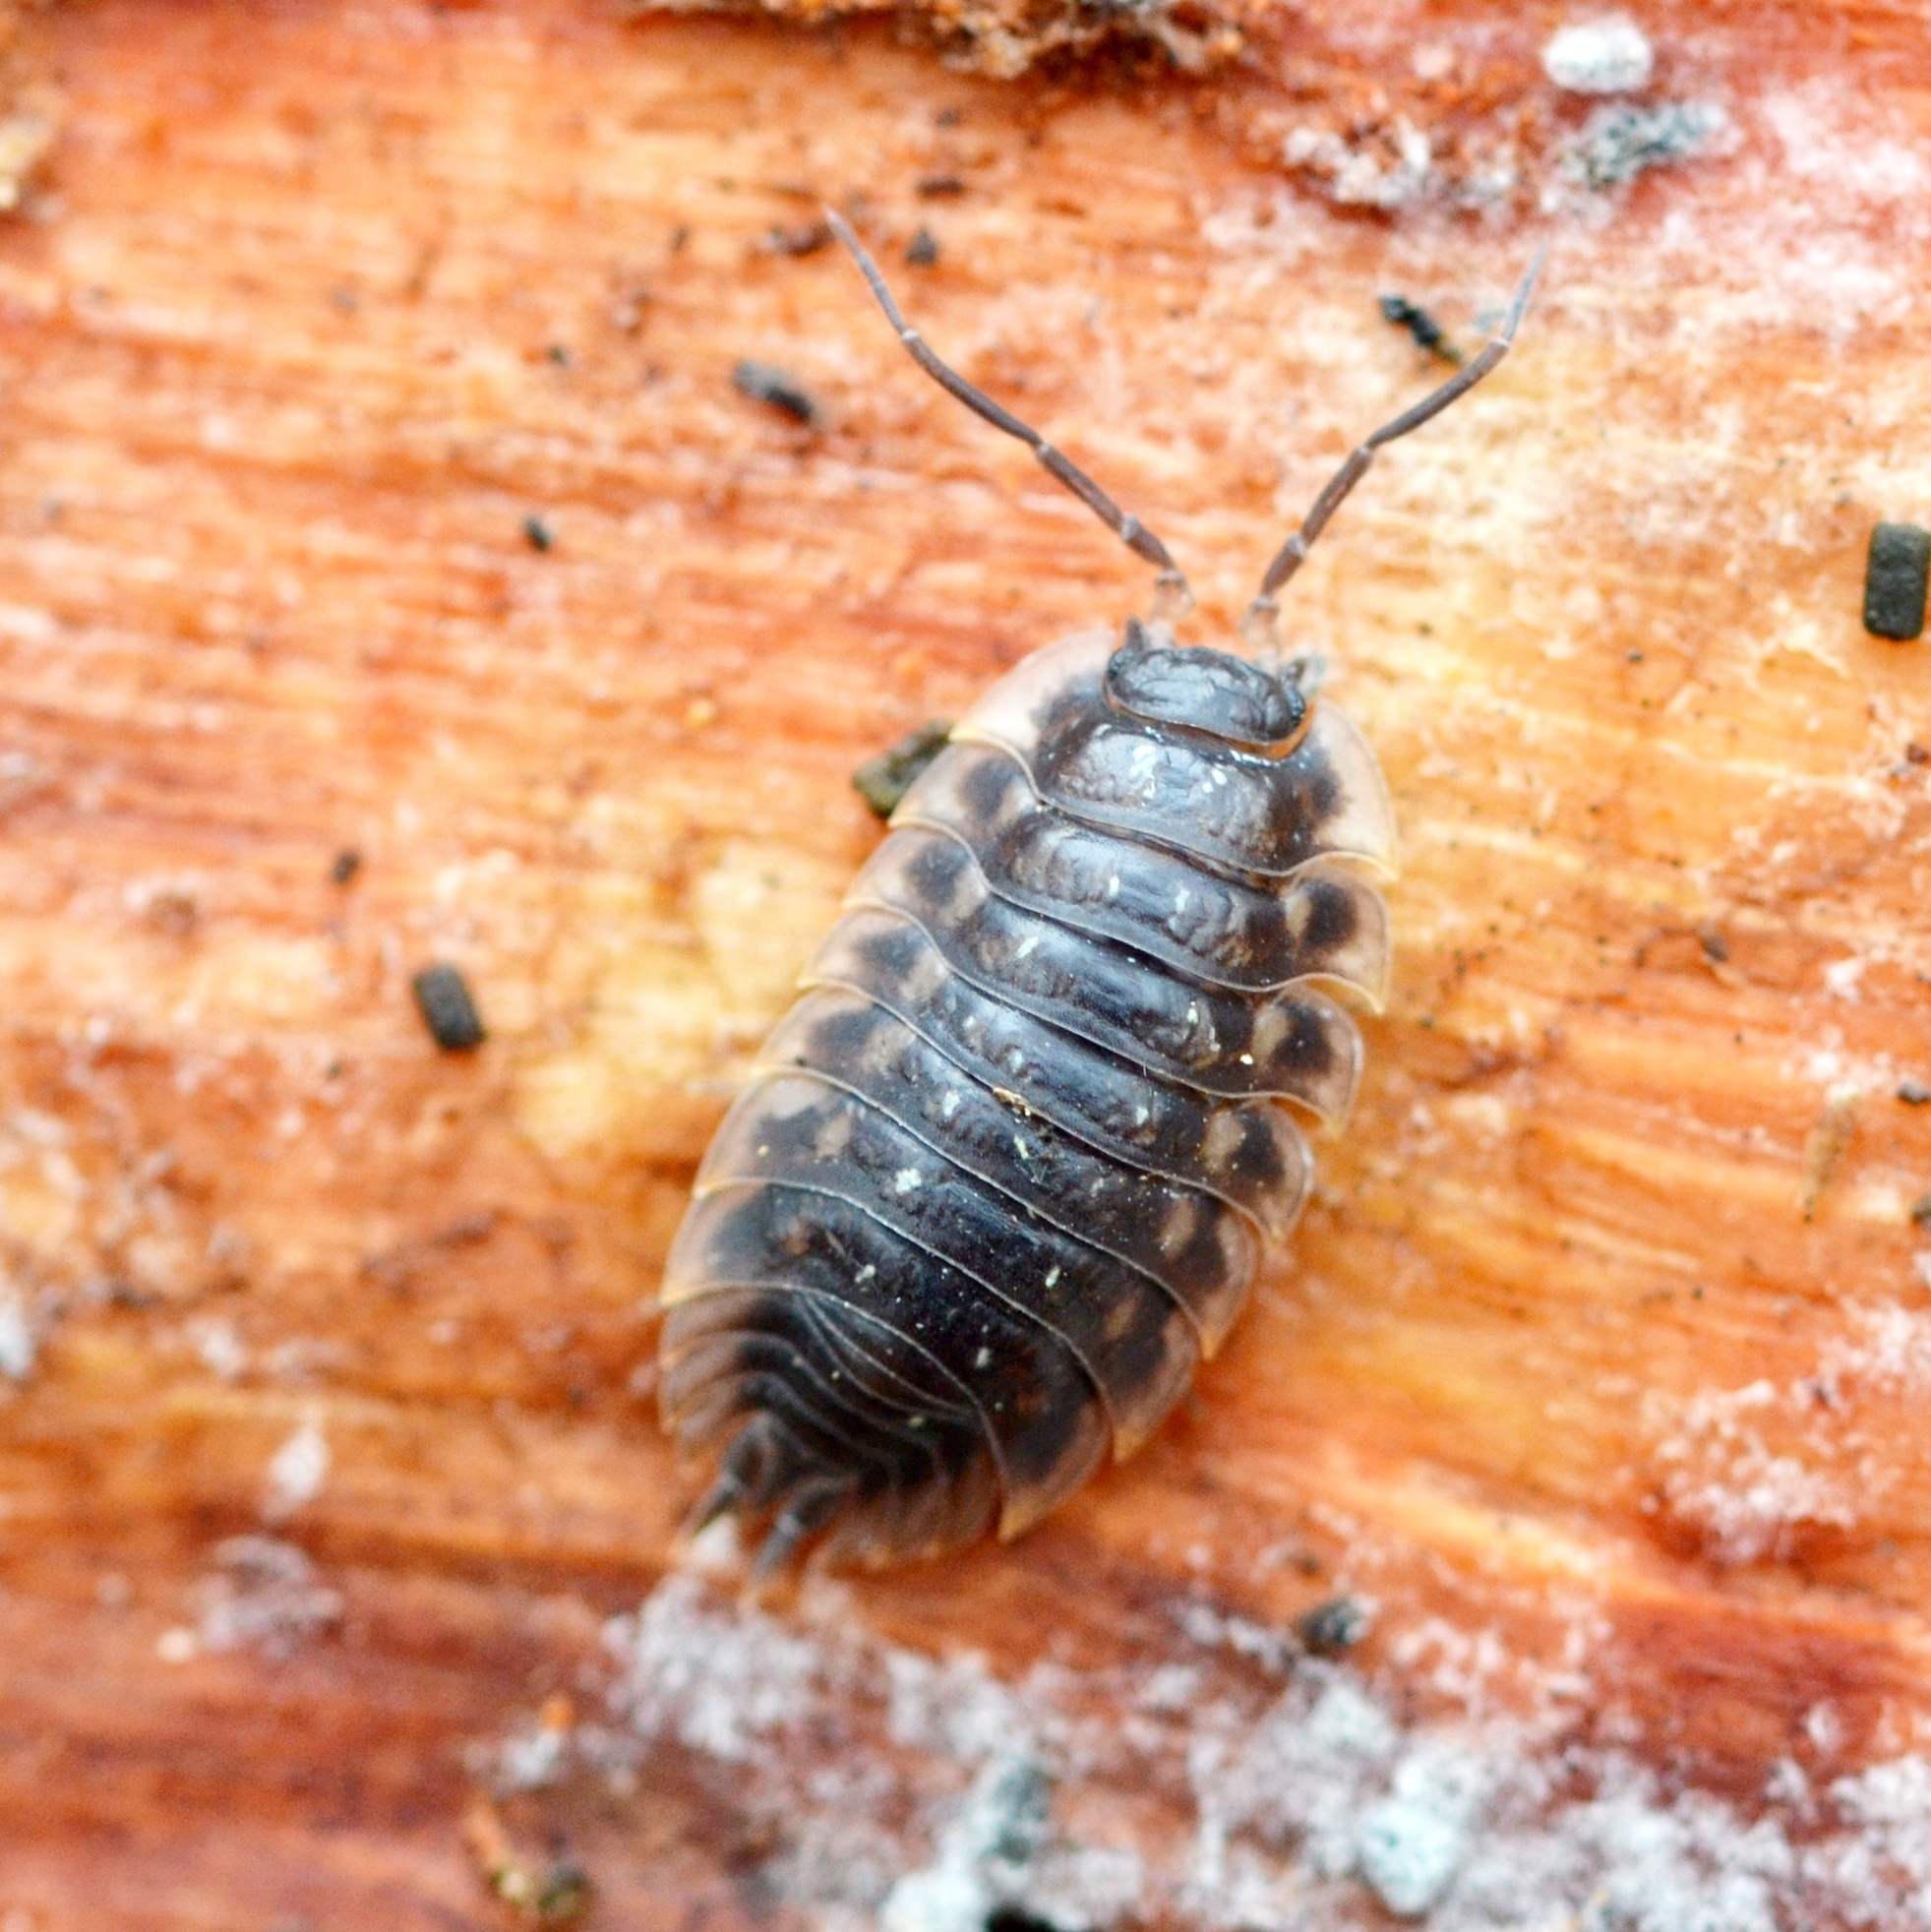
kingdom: Animalia
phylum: Arthropoda
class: Malacostraca
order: Isopoda
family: Oniscidae
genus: Oniscus
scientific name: Oniscus asellus
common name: Common shiny woodlouse
